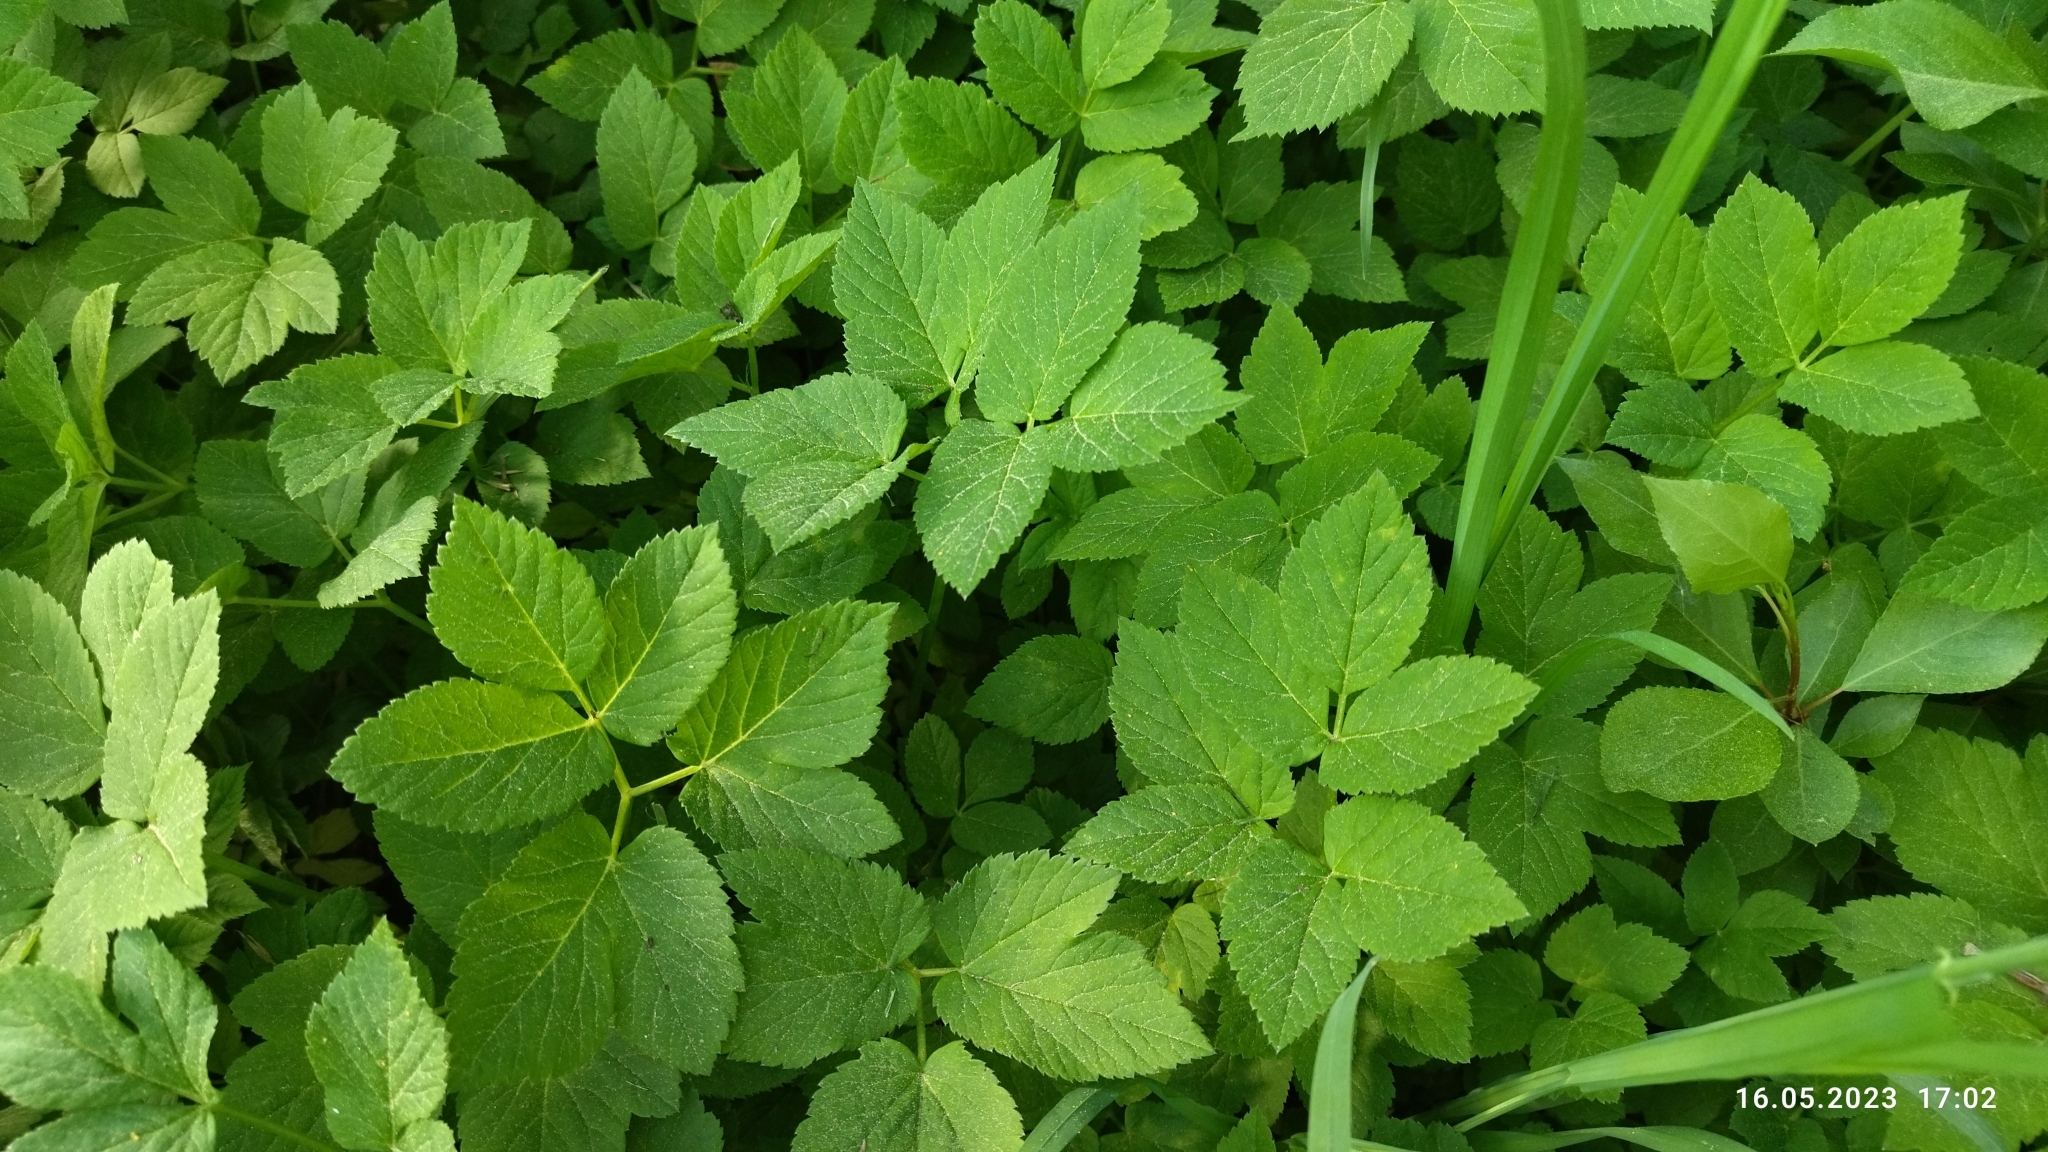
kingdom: Plantae
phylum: Tracheophyta
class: Magnoliopsida
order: Apiales
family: Apiaceae
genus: Aegopodium
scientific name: Aegopodium podagraria
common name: Ground-elder
